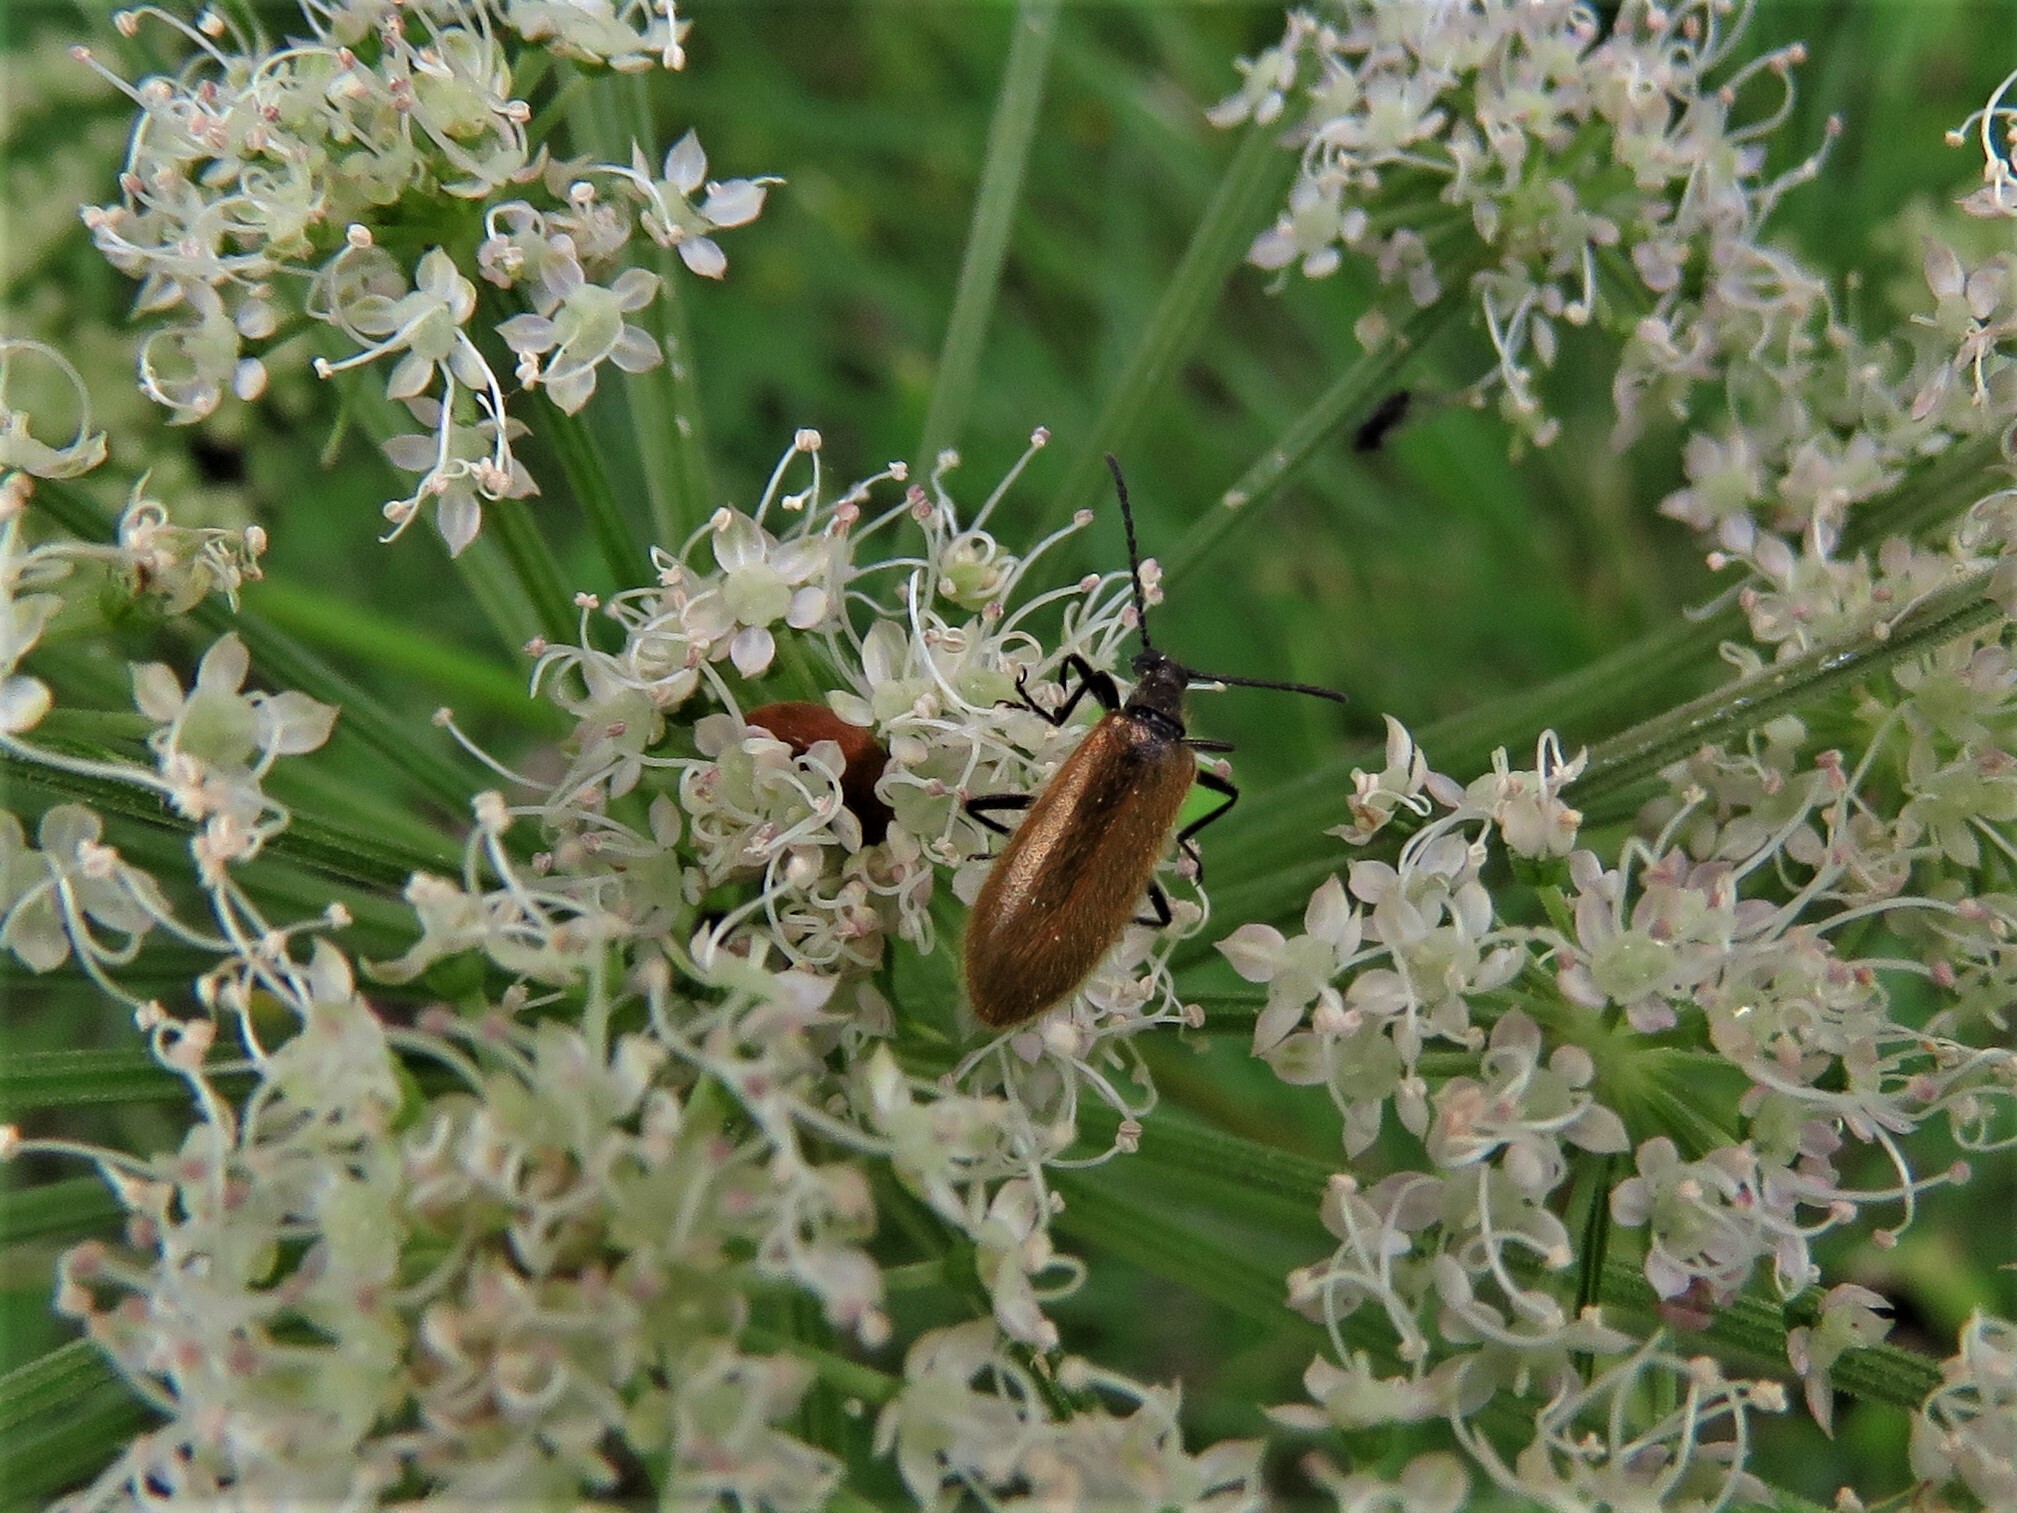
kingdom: Animalia
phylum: Arthropoda
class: Insecta
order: Coleoptera
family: Tenebrionidae
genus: Lagria
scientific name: Lagria hirta
